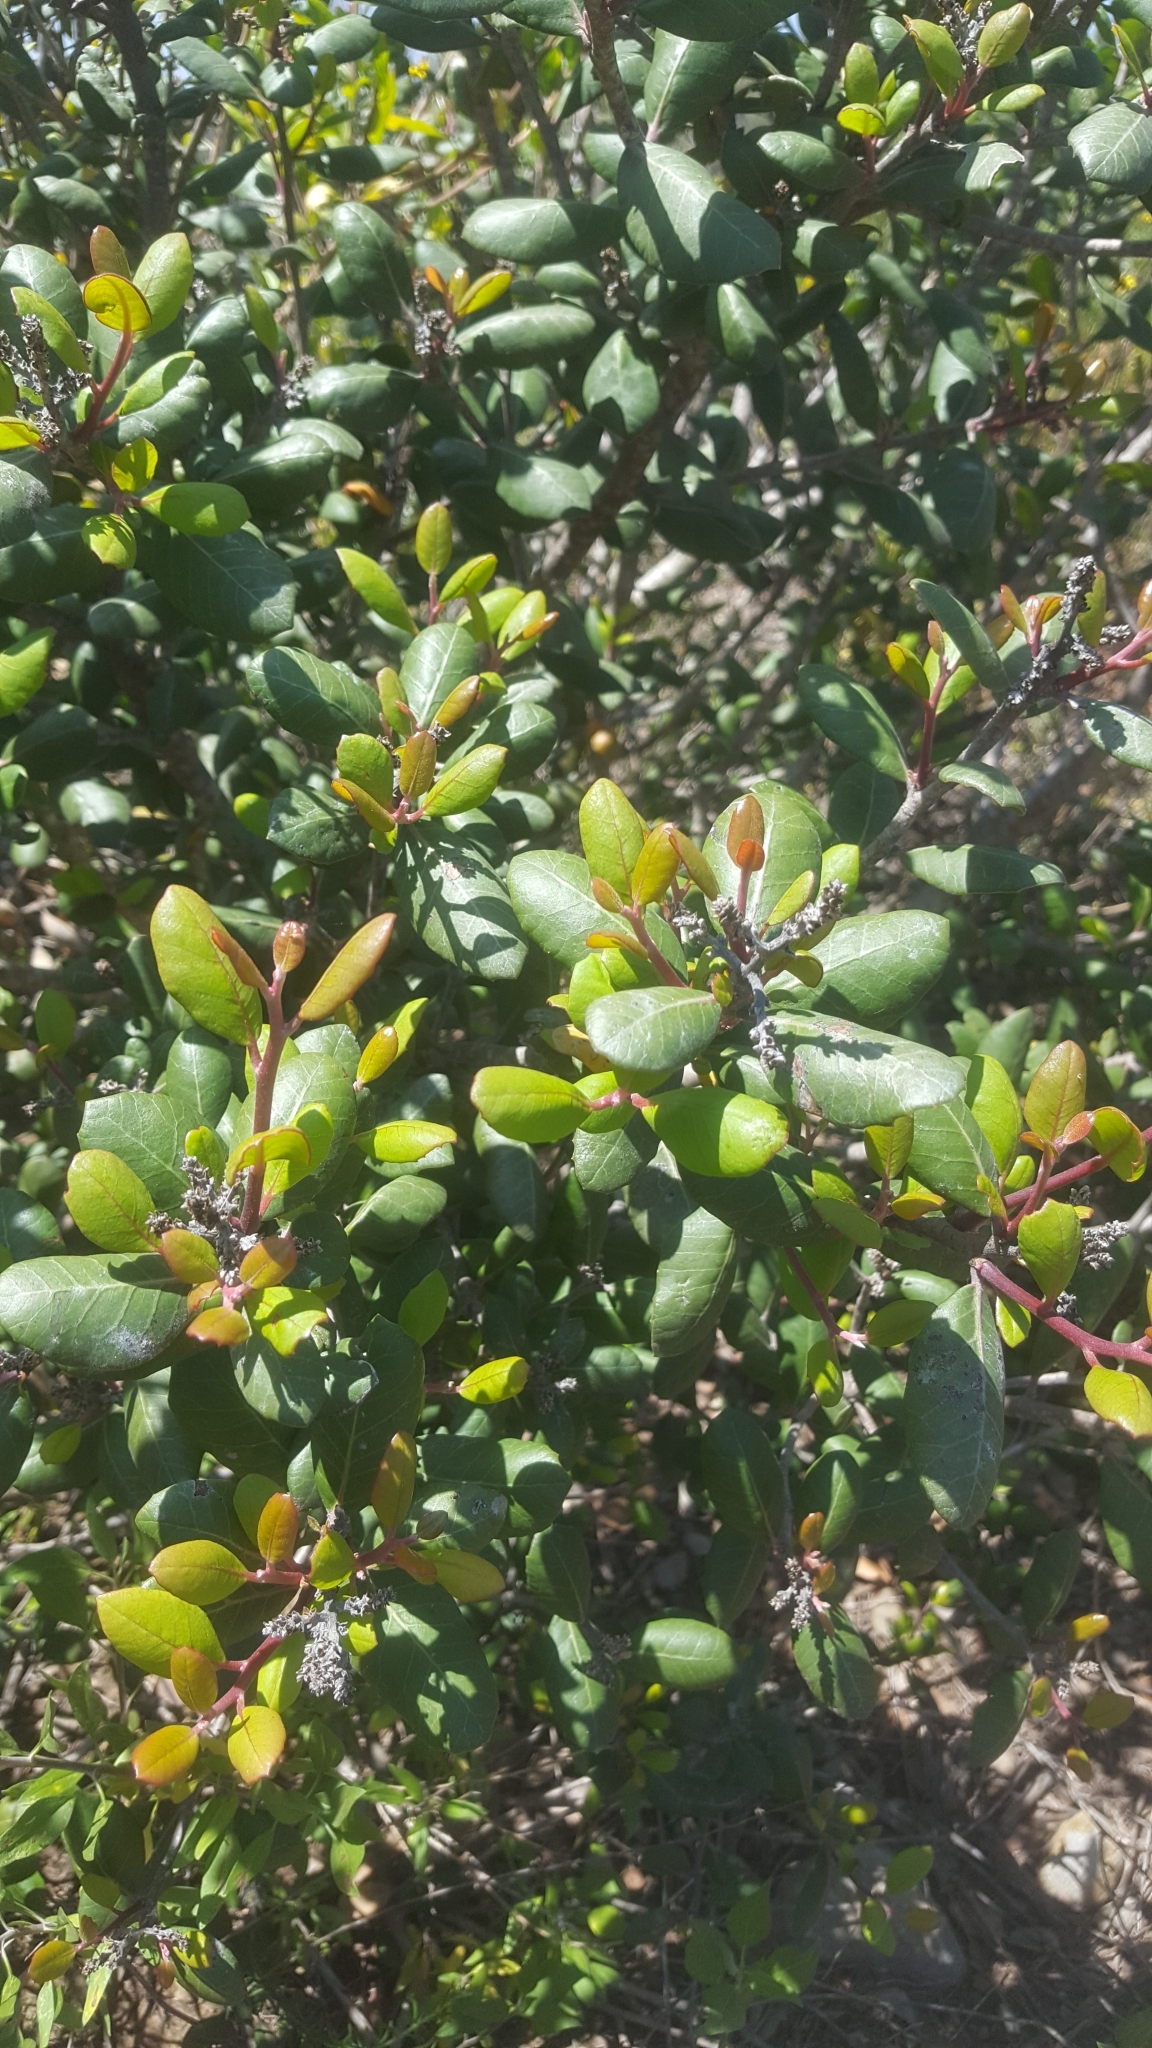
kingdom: Plantae
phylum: Tracheophyta
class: Magnoliopsida
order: Sapindales
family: Anacardiaceae
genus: Rhus
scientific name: Rhus integrifolia
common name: Lemonade sumac
